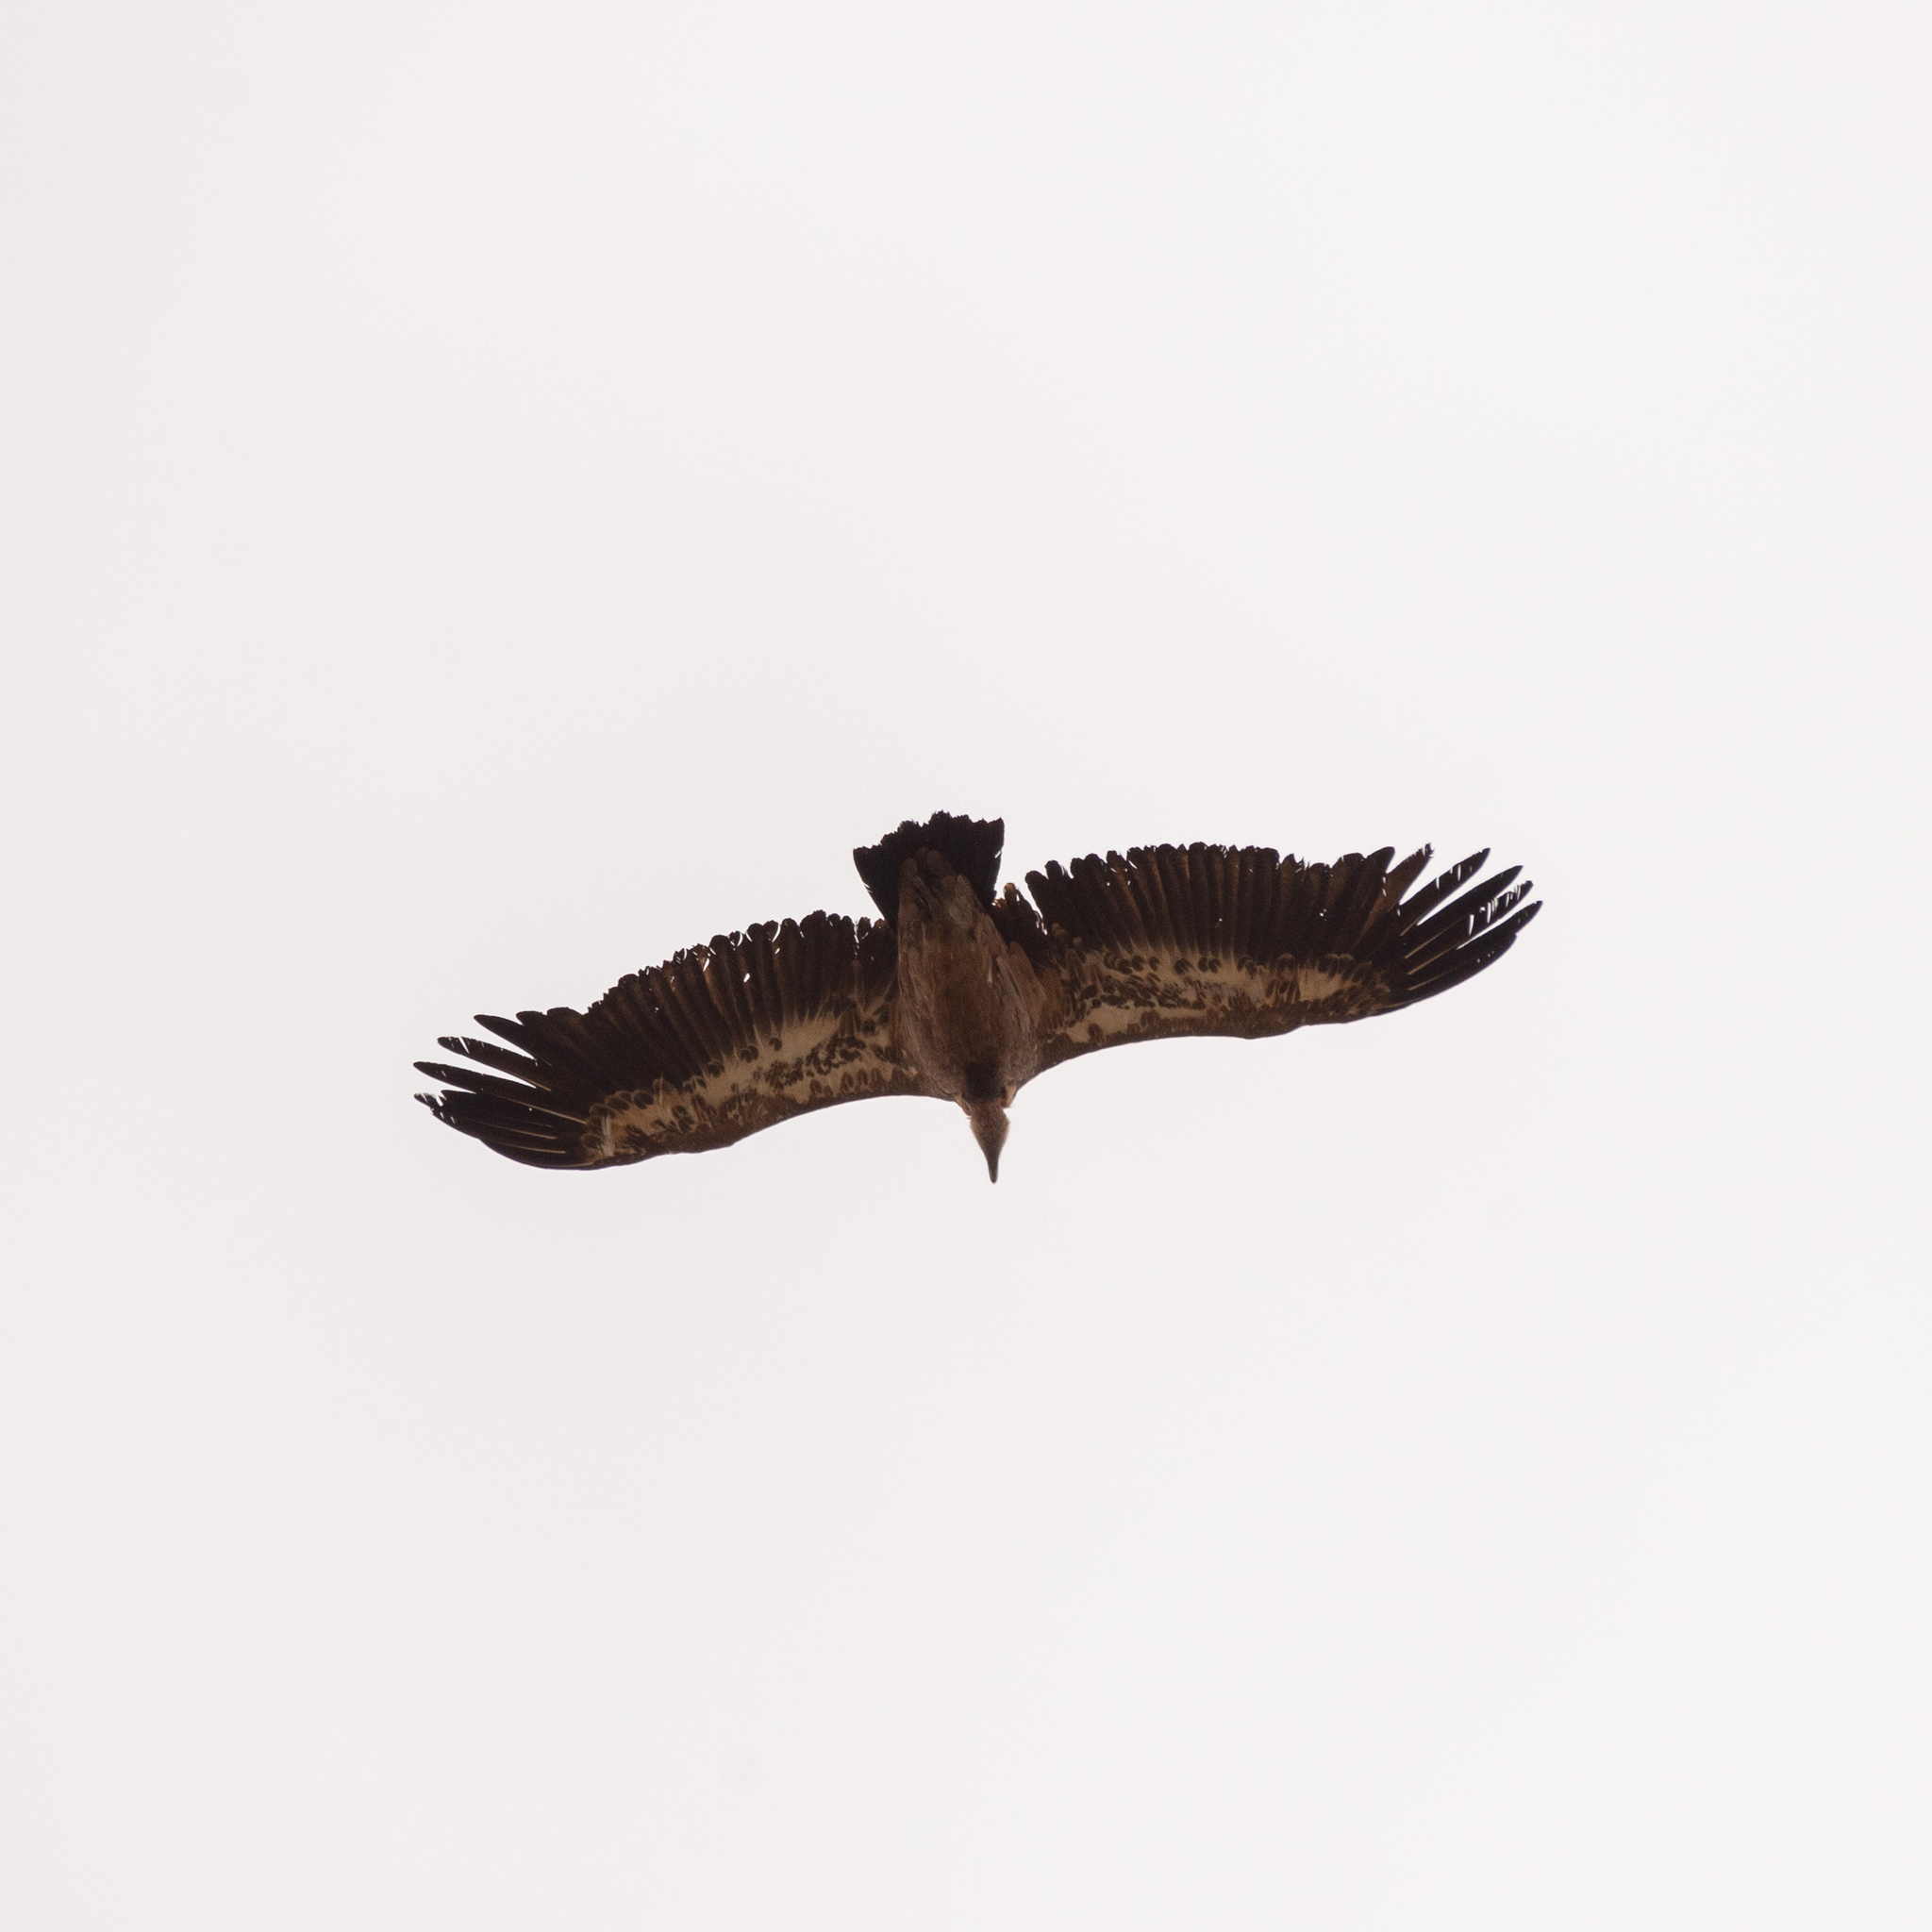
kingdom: Animalia
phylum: Chordata
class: Aves
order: Accipitriformes
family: Accipitridae
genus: Gyps
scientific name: Gyps fulvus
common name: Griffon vulture
